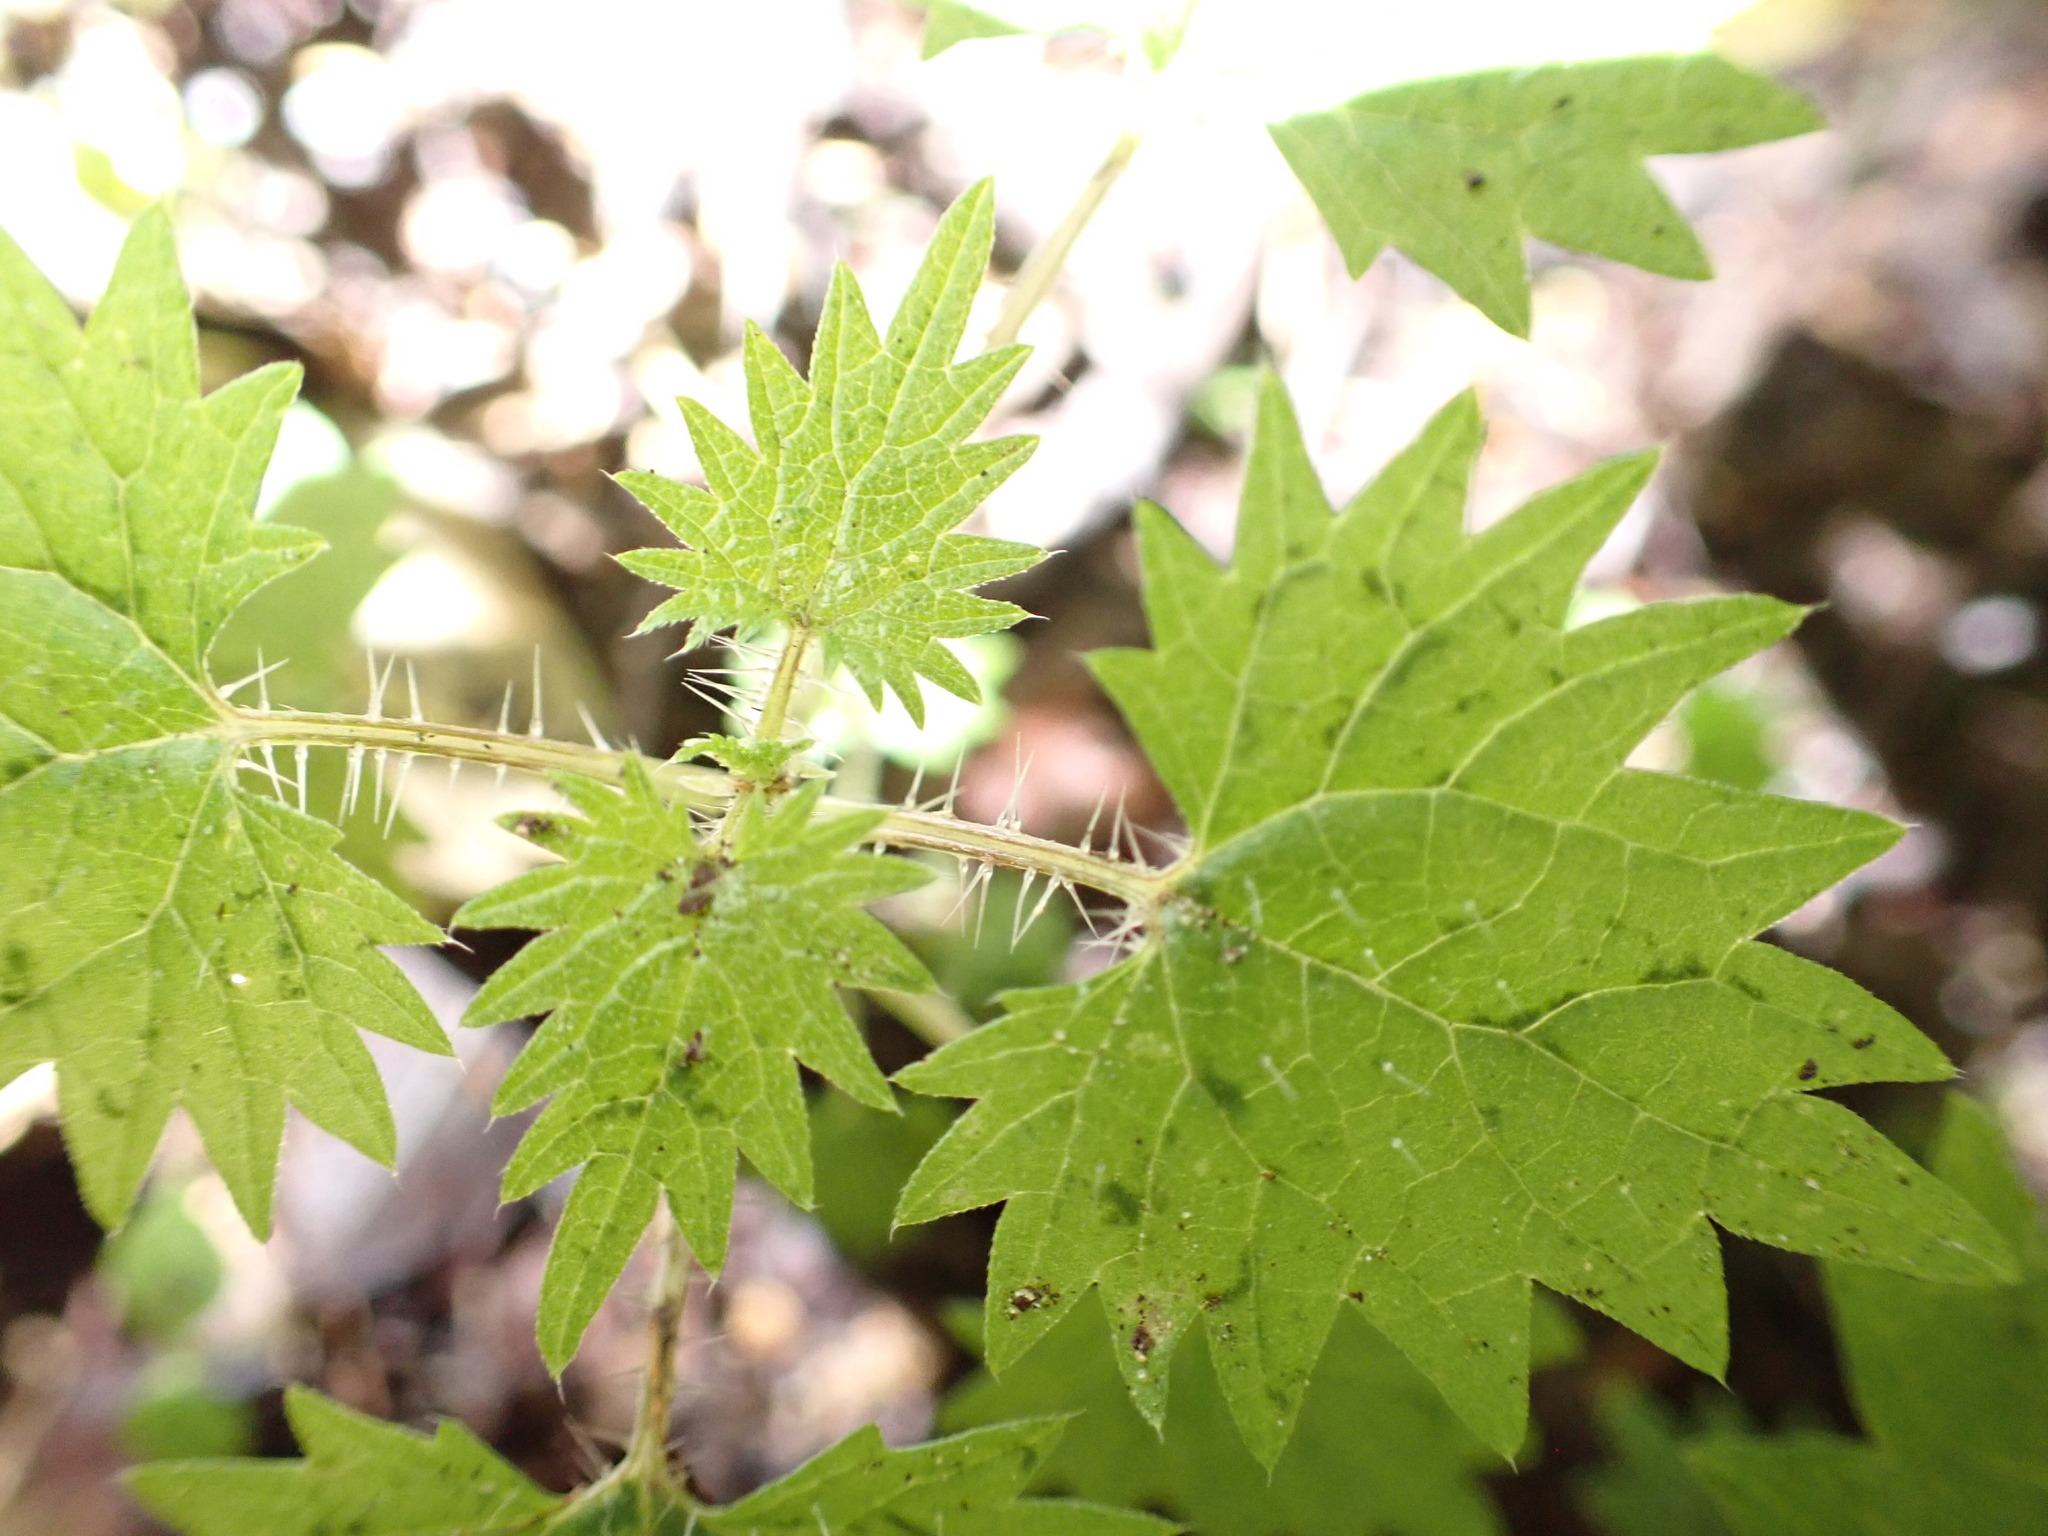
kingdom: Plantae
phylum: Tracheophyta
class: Magnoliopsida
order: Rosales
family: Urticaceae
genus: Urtica
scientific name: Urtica sykesii
